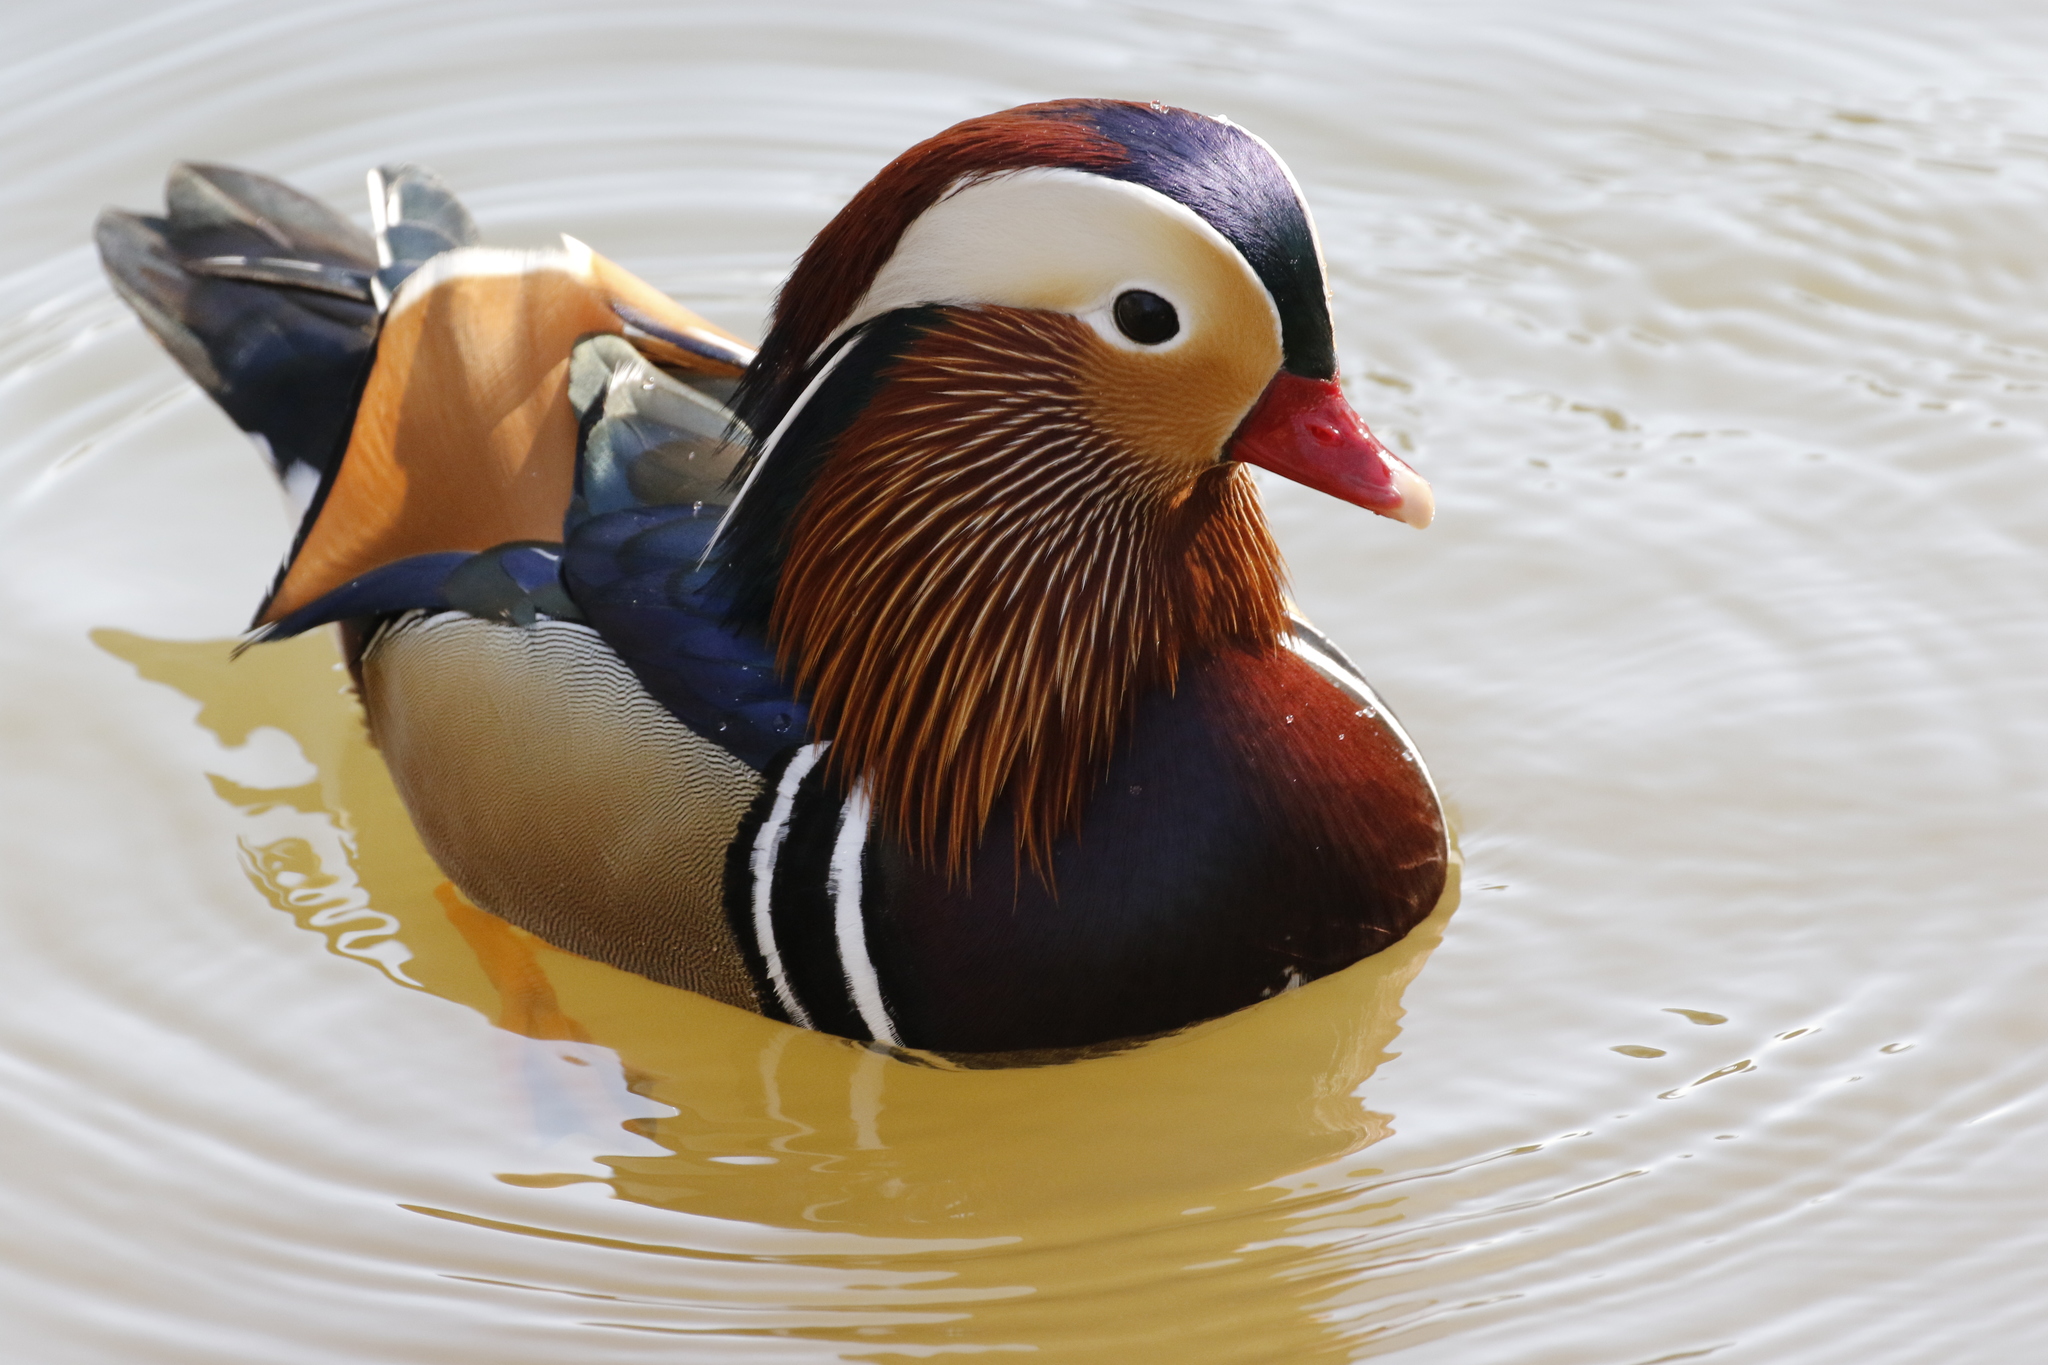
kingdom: Animalia
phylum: Chordata
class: Aves
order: Anseriformes
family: Anatidae
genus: Aix
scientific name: Aix galericulata
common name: Mandarin duck
